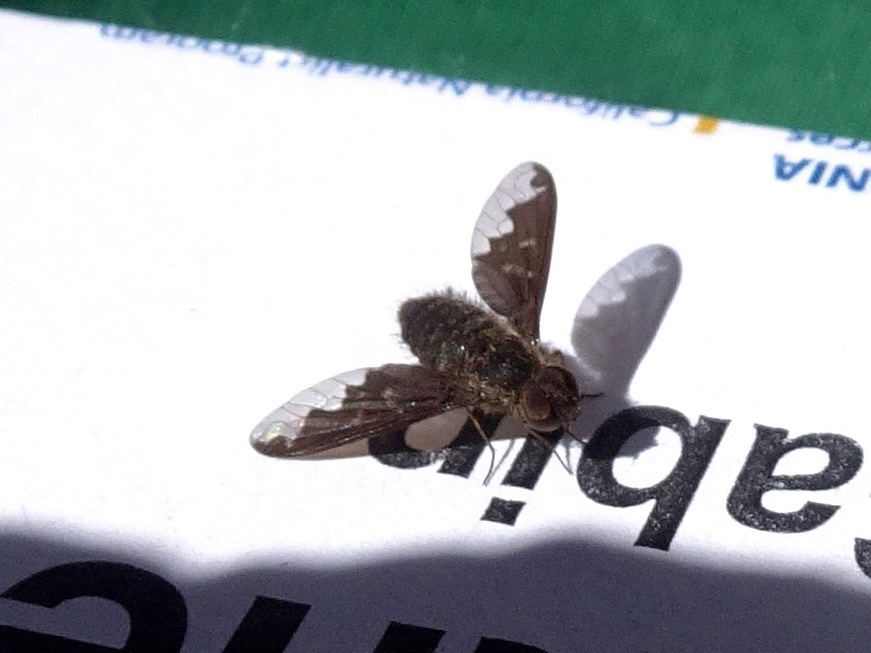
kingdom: Animalia
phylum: Arthropoda
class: Insecta
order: Diptera
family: Bombyliidae
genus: Hemipenthes
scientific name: Hemipenthes sinuosus
